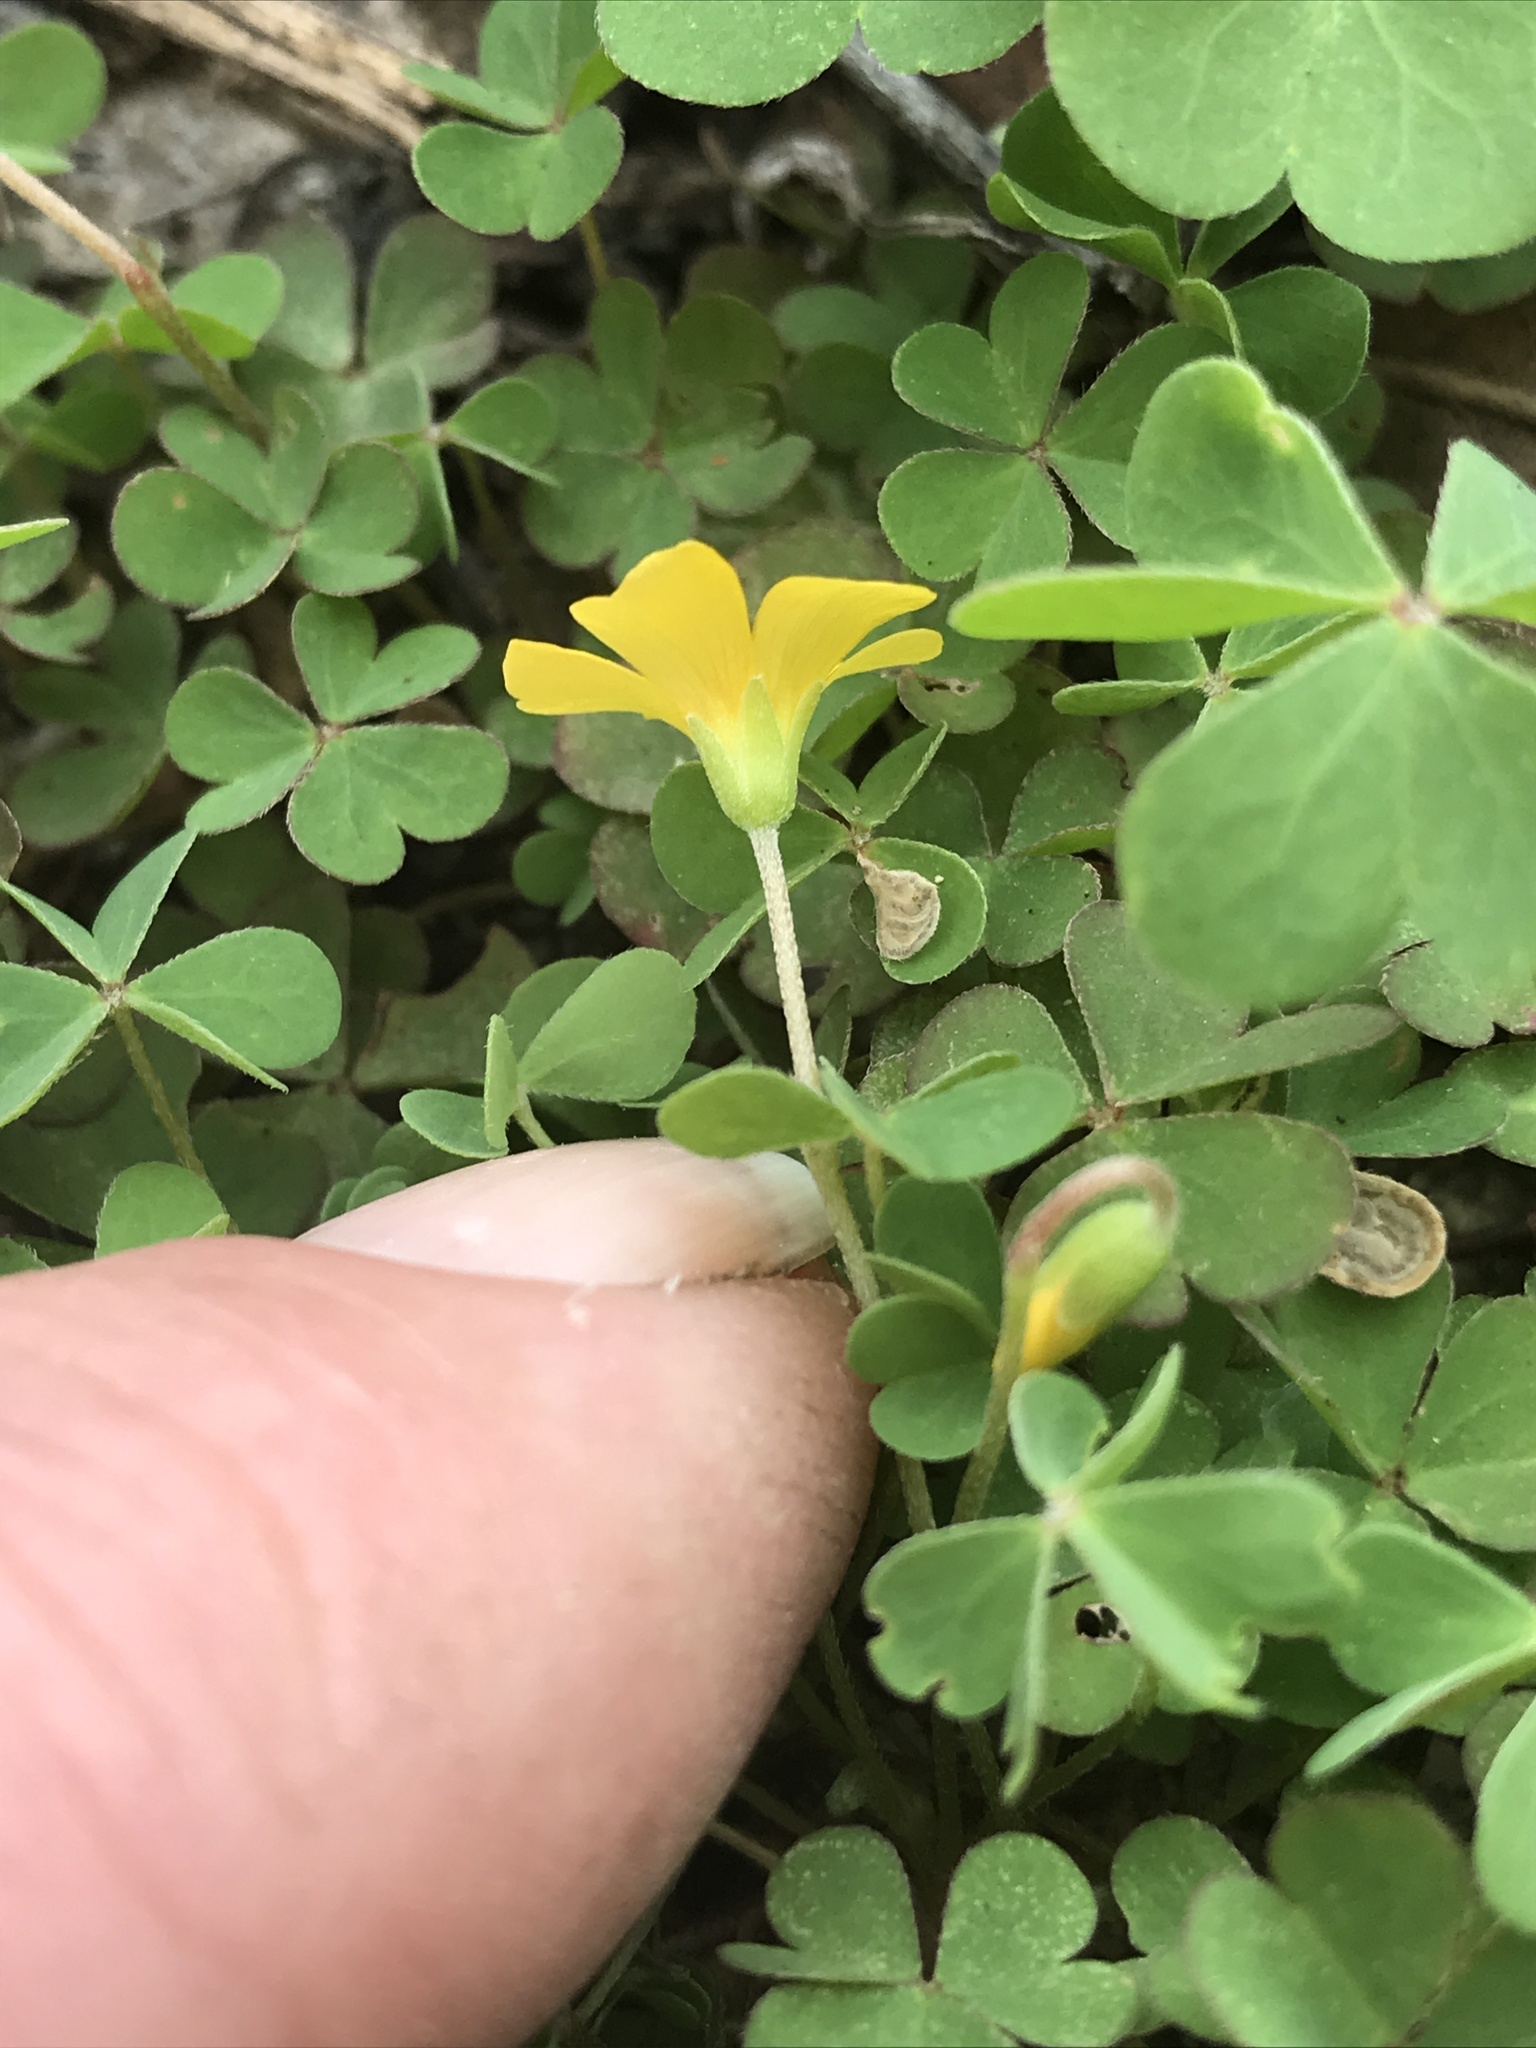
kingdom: Plantae
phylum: Tracheophyta
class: Magnoliopsida
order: Oxalidales
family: Oxalidaceae
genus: Oxalis
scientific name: Oxalis dillenii
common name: Sussex yellow-sorrel
